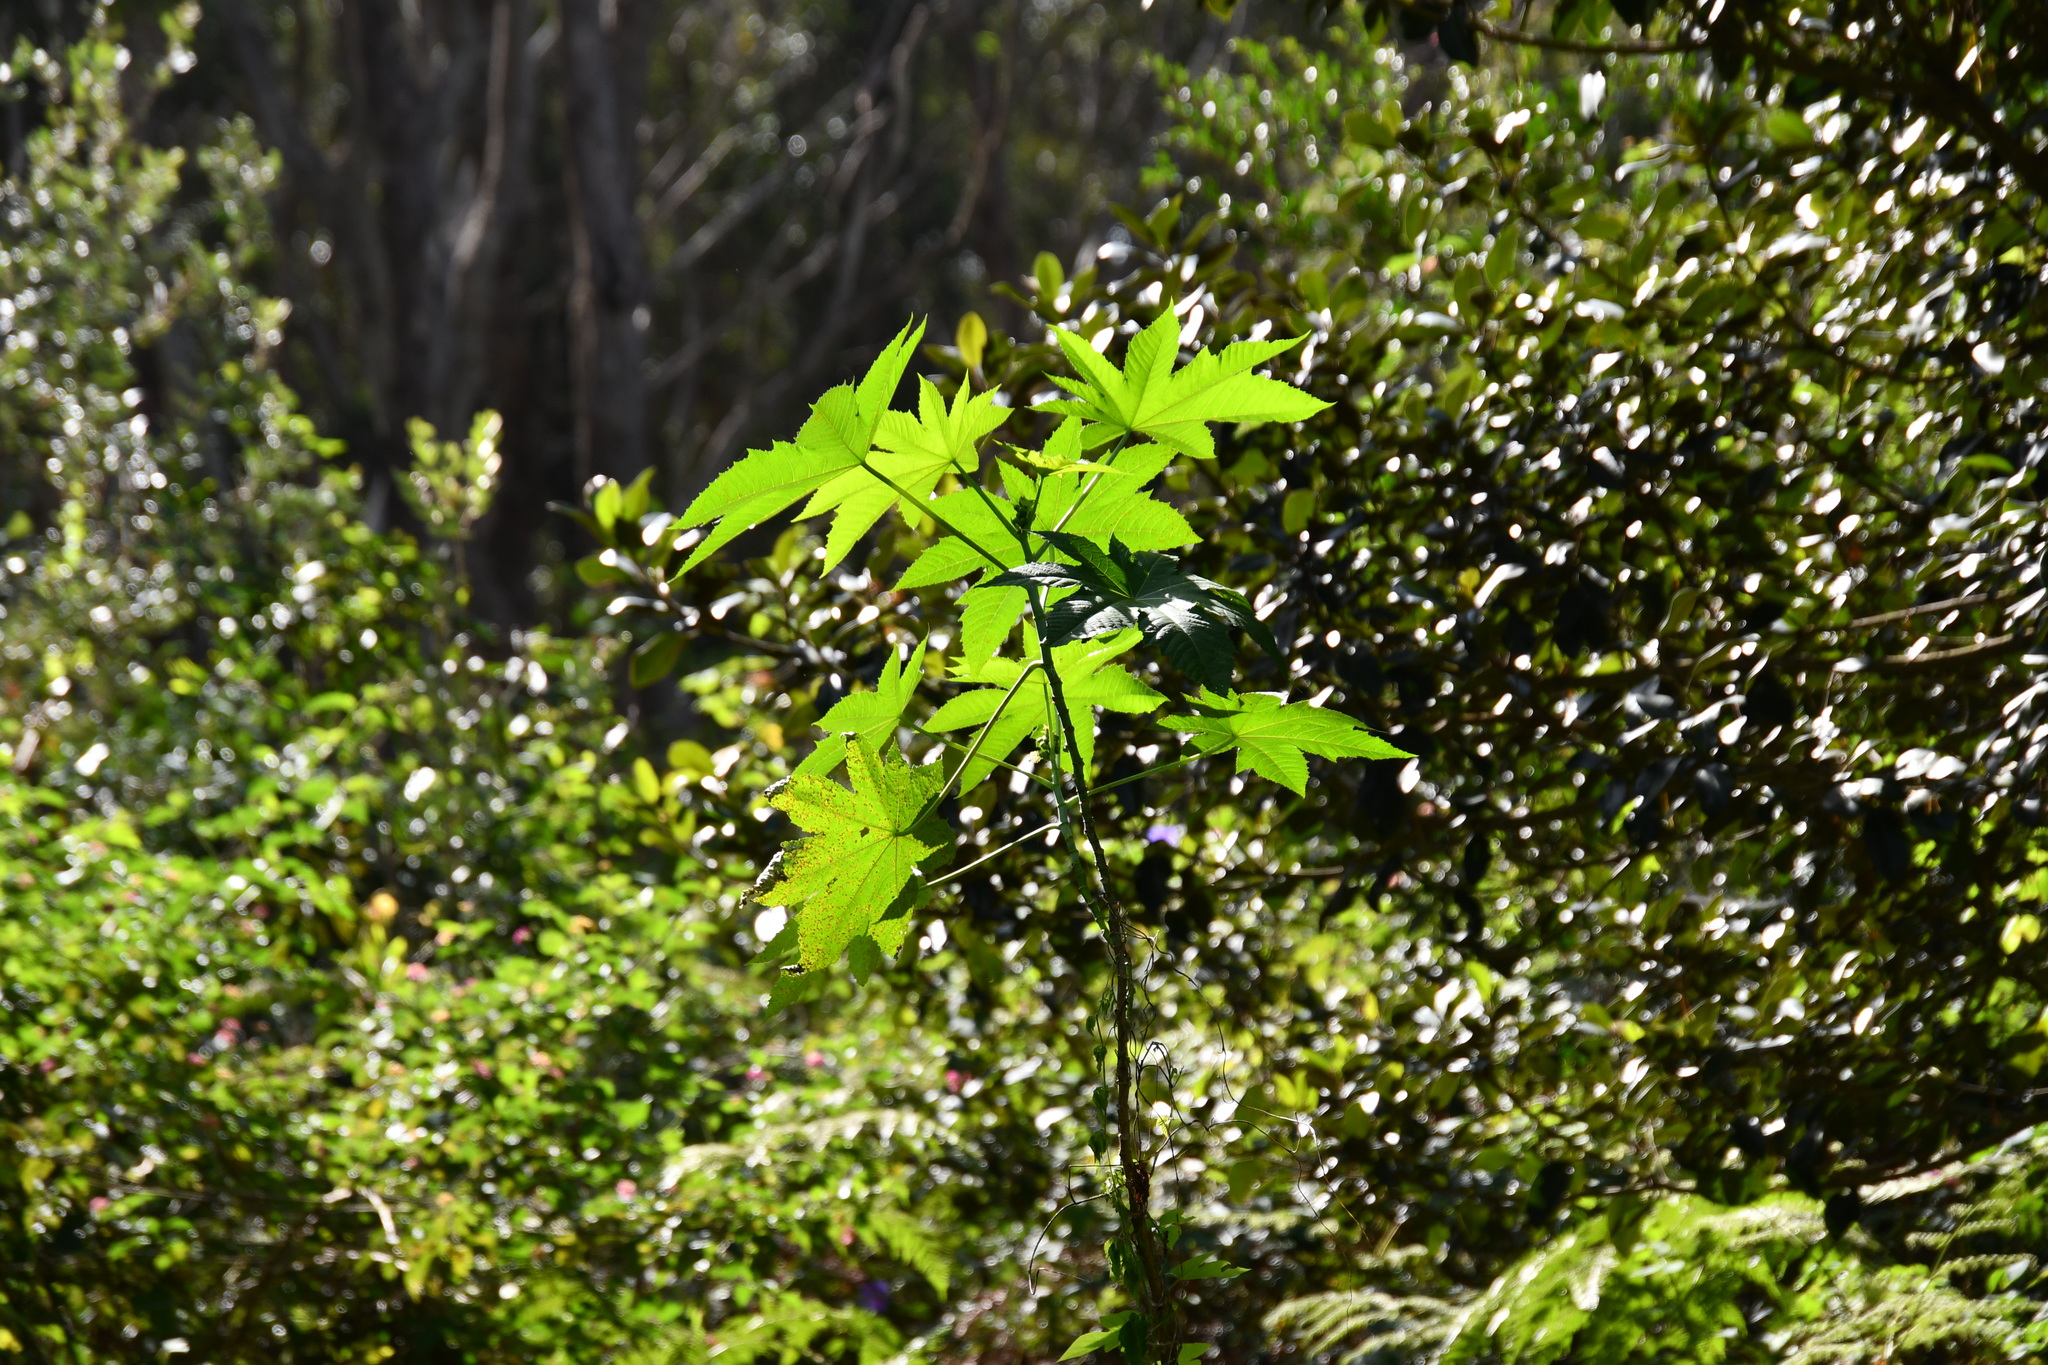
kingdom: Plantae
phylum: Tracheophyta
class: Magnoliopsida
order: Malpighiales
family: Euphorbiaceae
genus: Ricinus
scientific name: Ricinus communis
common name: Castor-oil-plant
